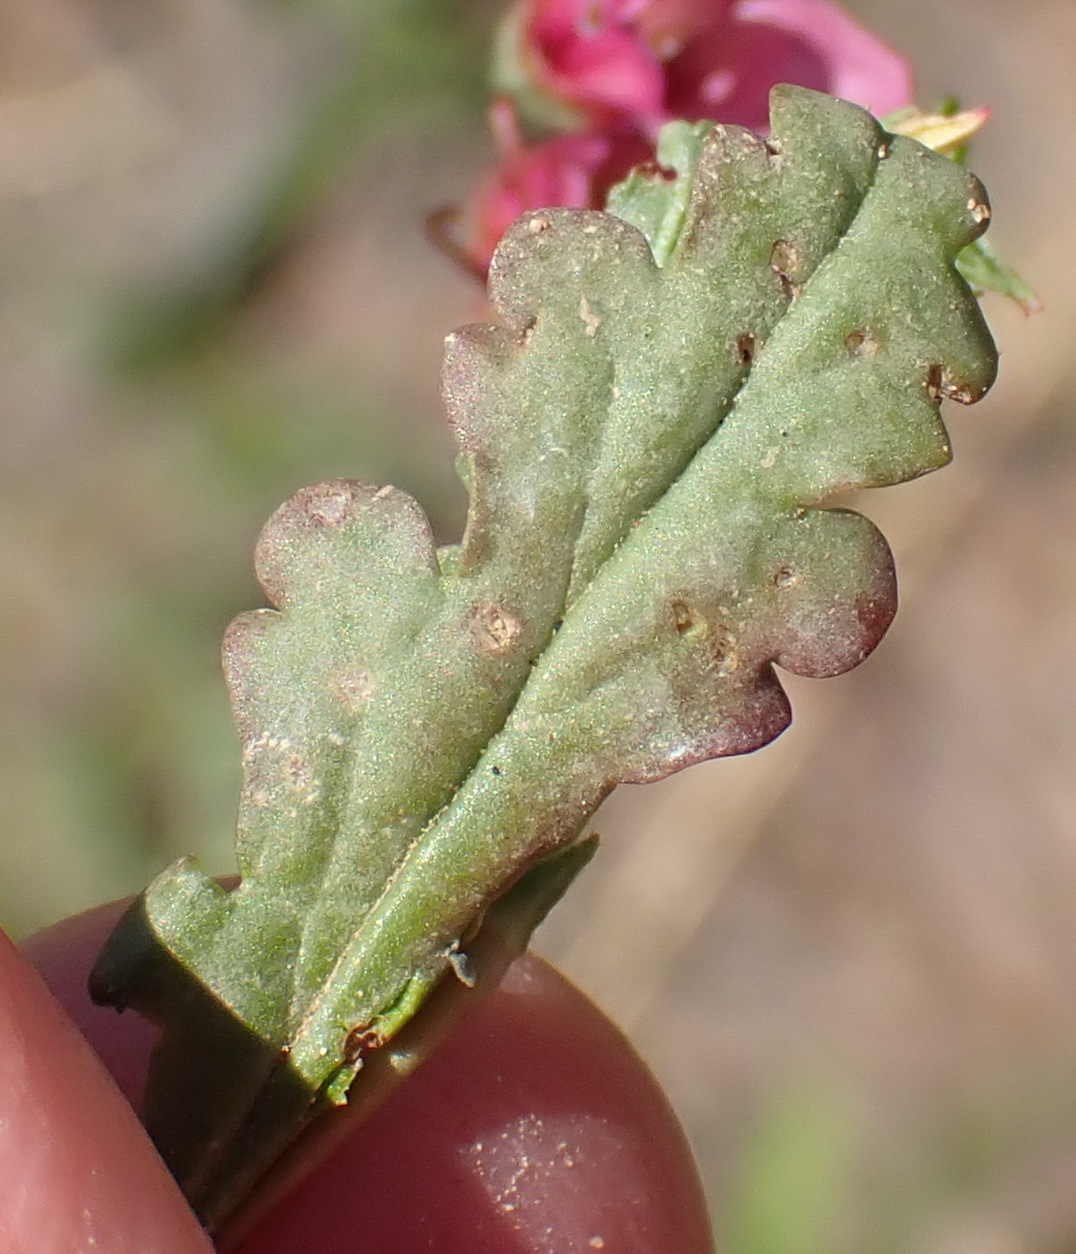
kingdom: Plantae
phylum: Tracheophyta
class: Magnoliopsida
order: Malvales
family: Malvaceae
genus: Hermannia
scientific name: Hermannia coccocarpa
